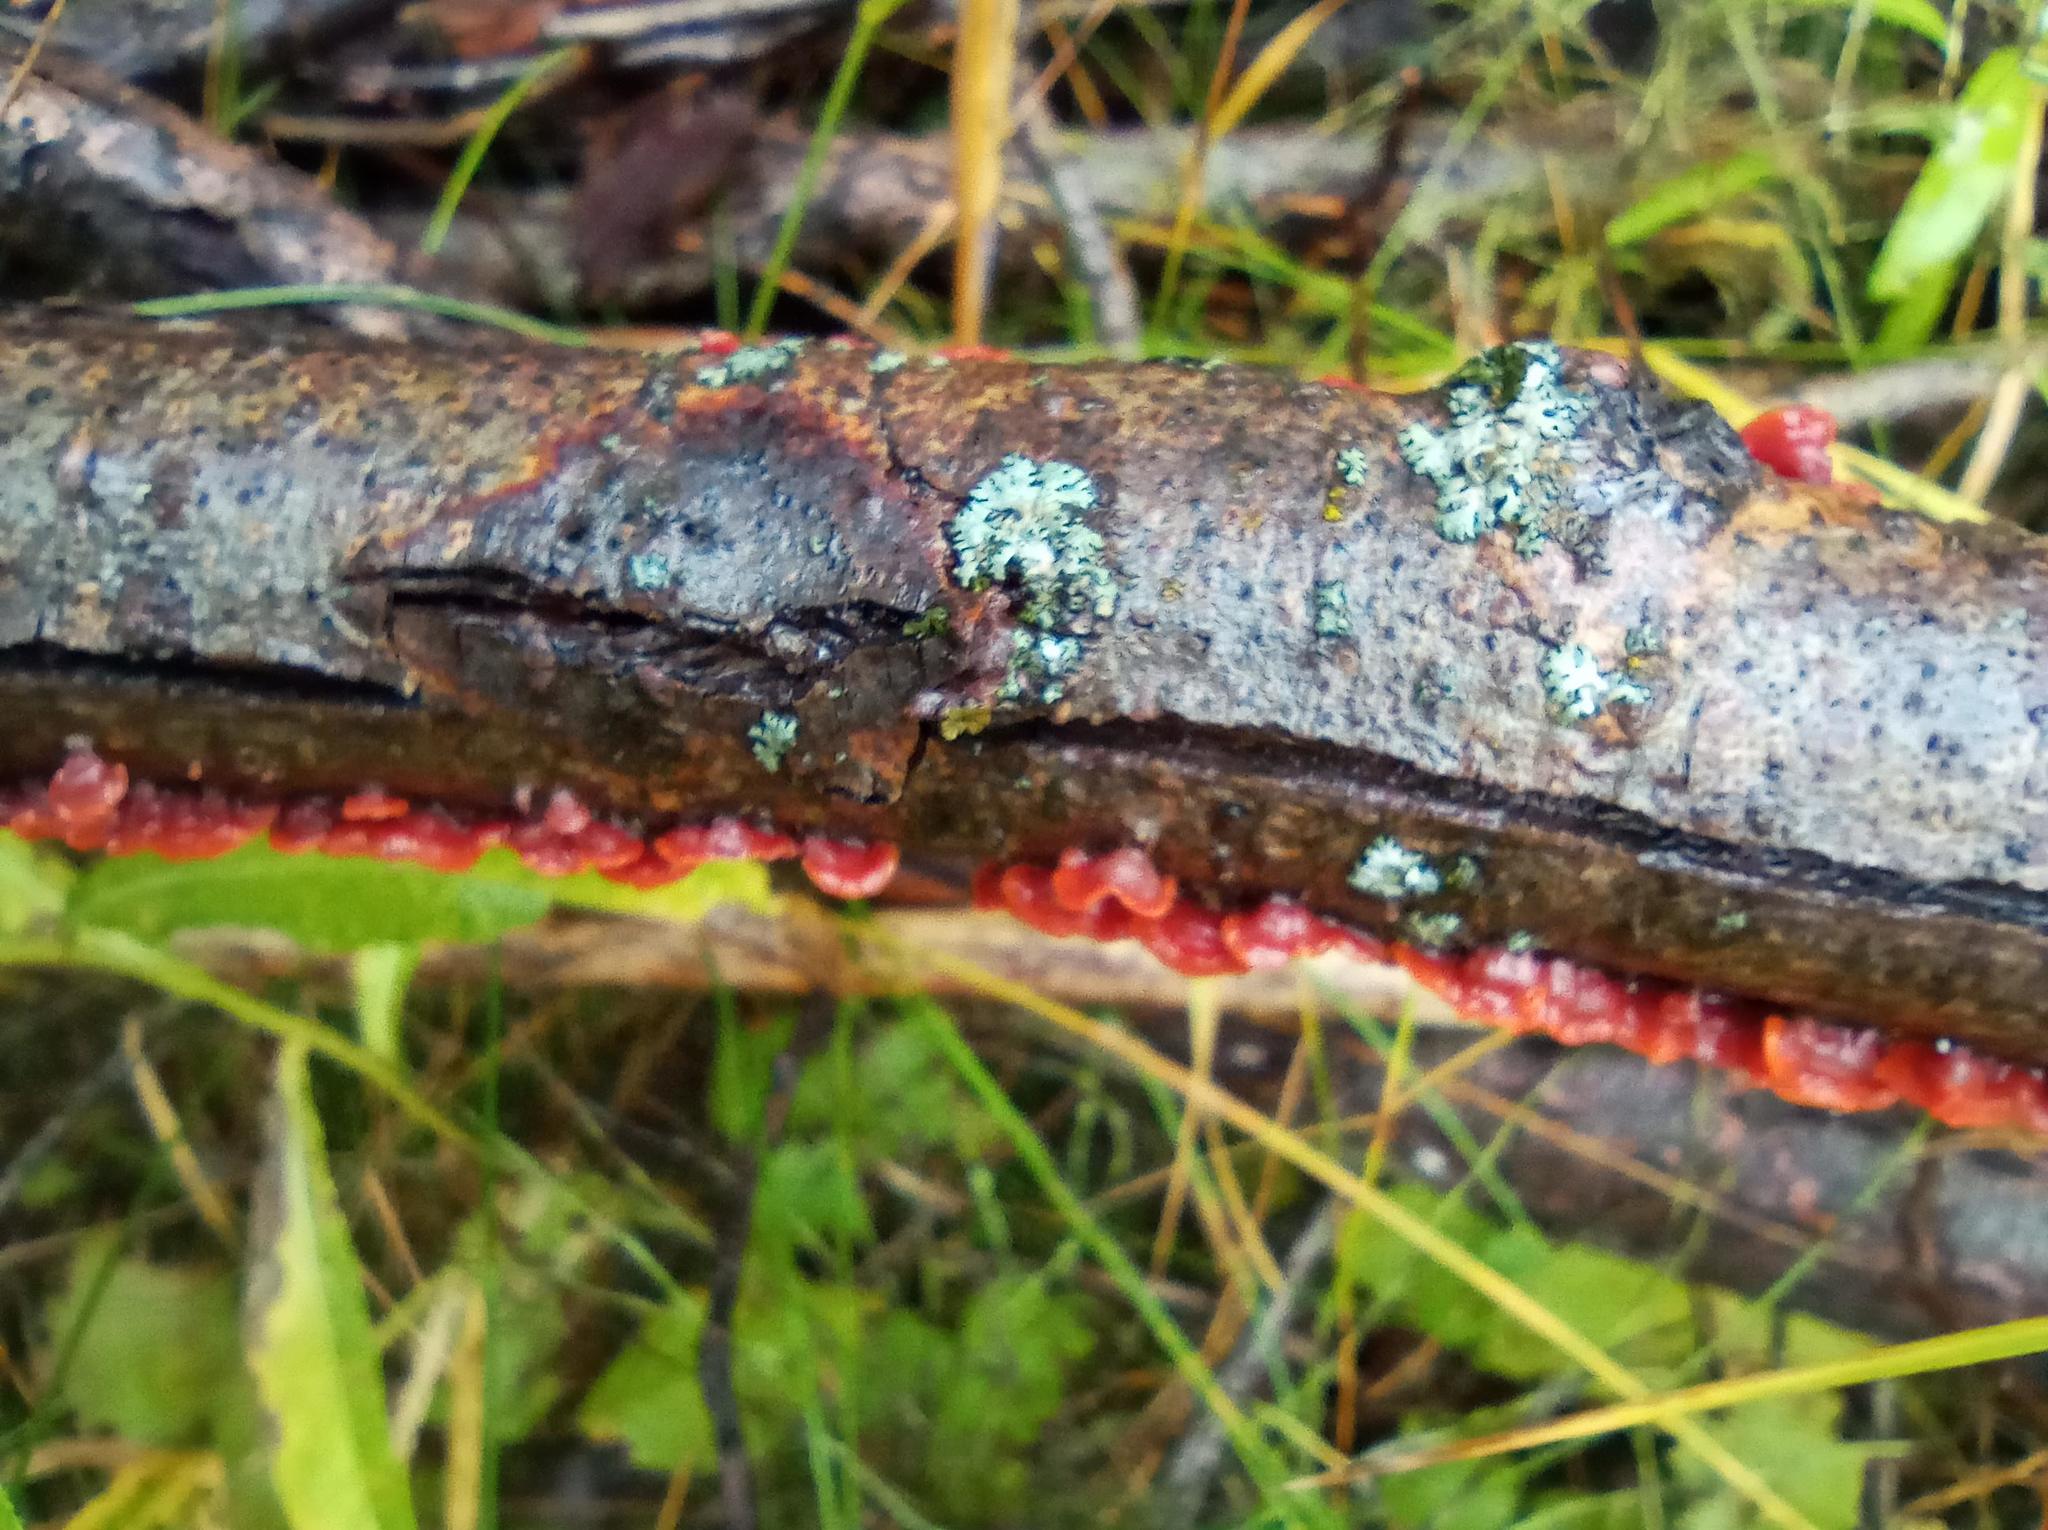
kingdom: Fungi
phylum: Basidiomycota
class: Agaricomycetes
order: Corticiales
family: Vuilleminiaceae
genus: Cytidia
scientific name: Cytidia salicina
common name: Scarlet splash
